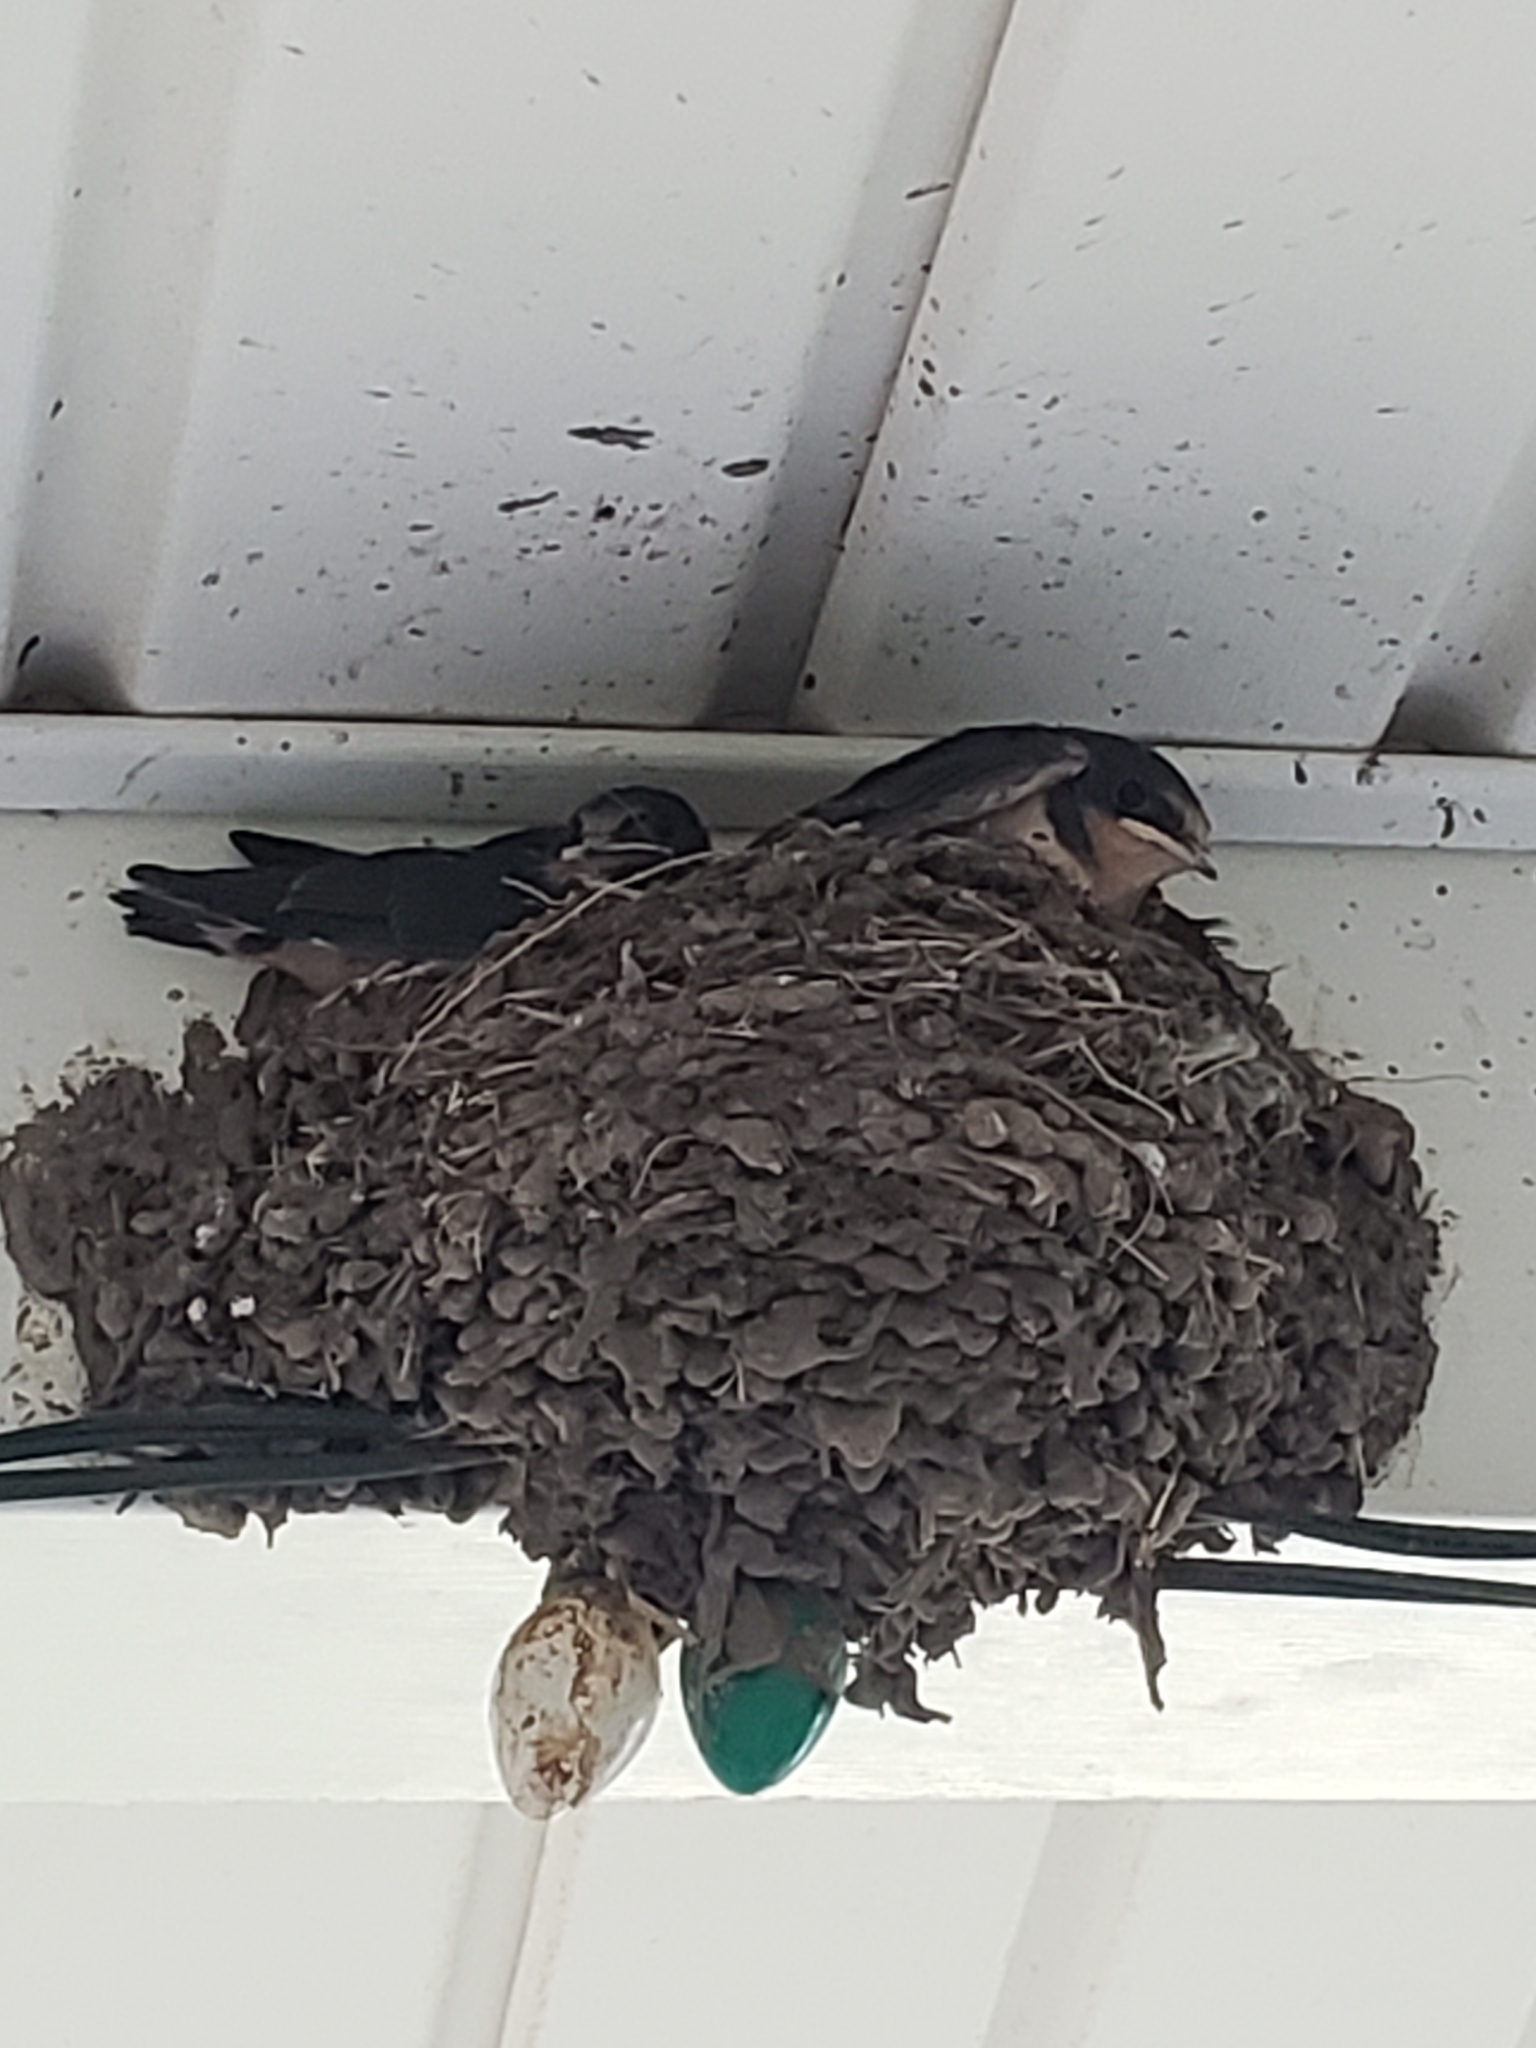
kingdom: Animalia
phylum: Chordata
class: Aves
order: Passeriformes
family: Hirundinidae
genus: Hirundo
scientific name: Hirundo rustica
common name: Barn swallow
